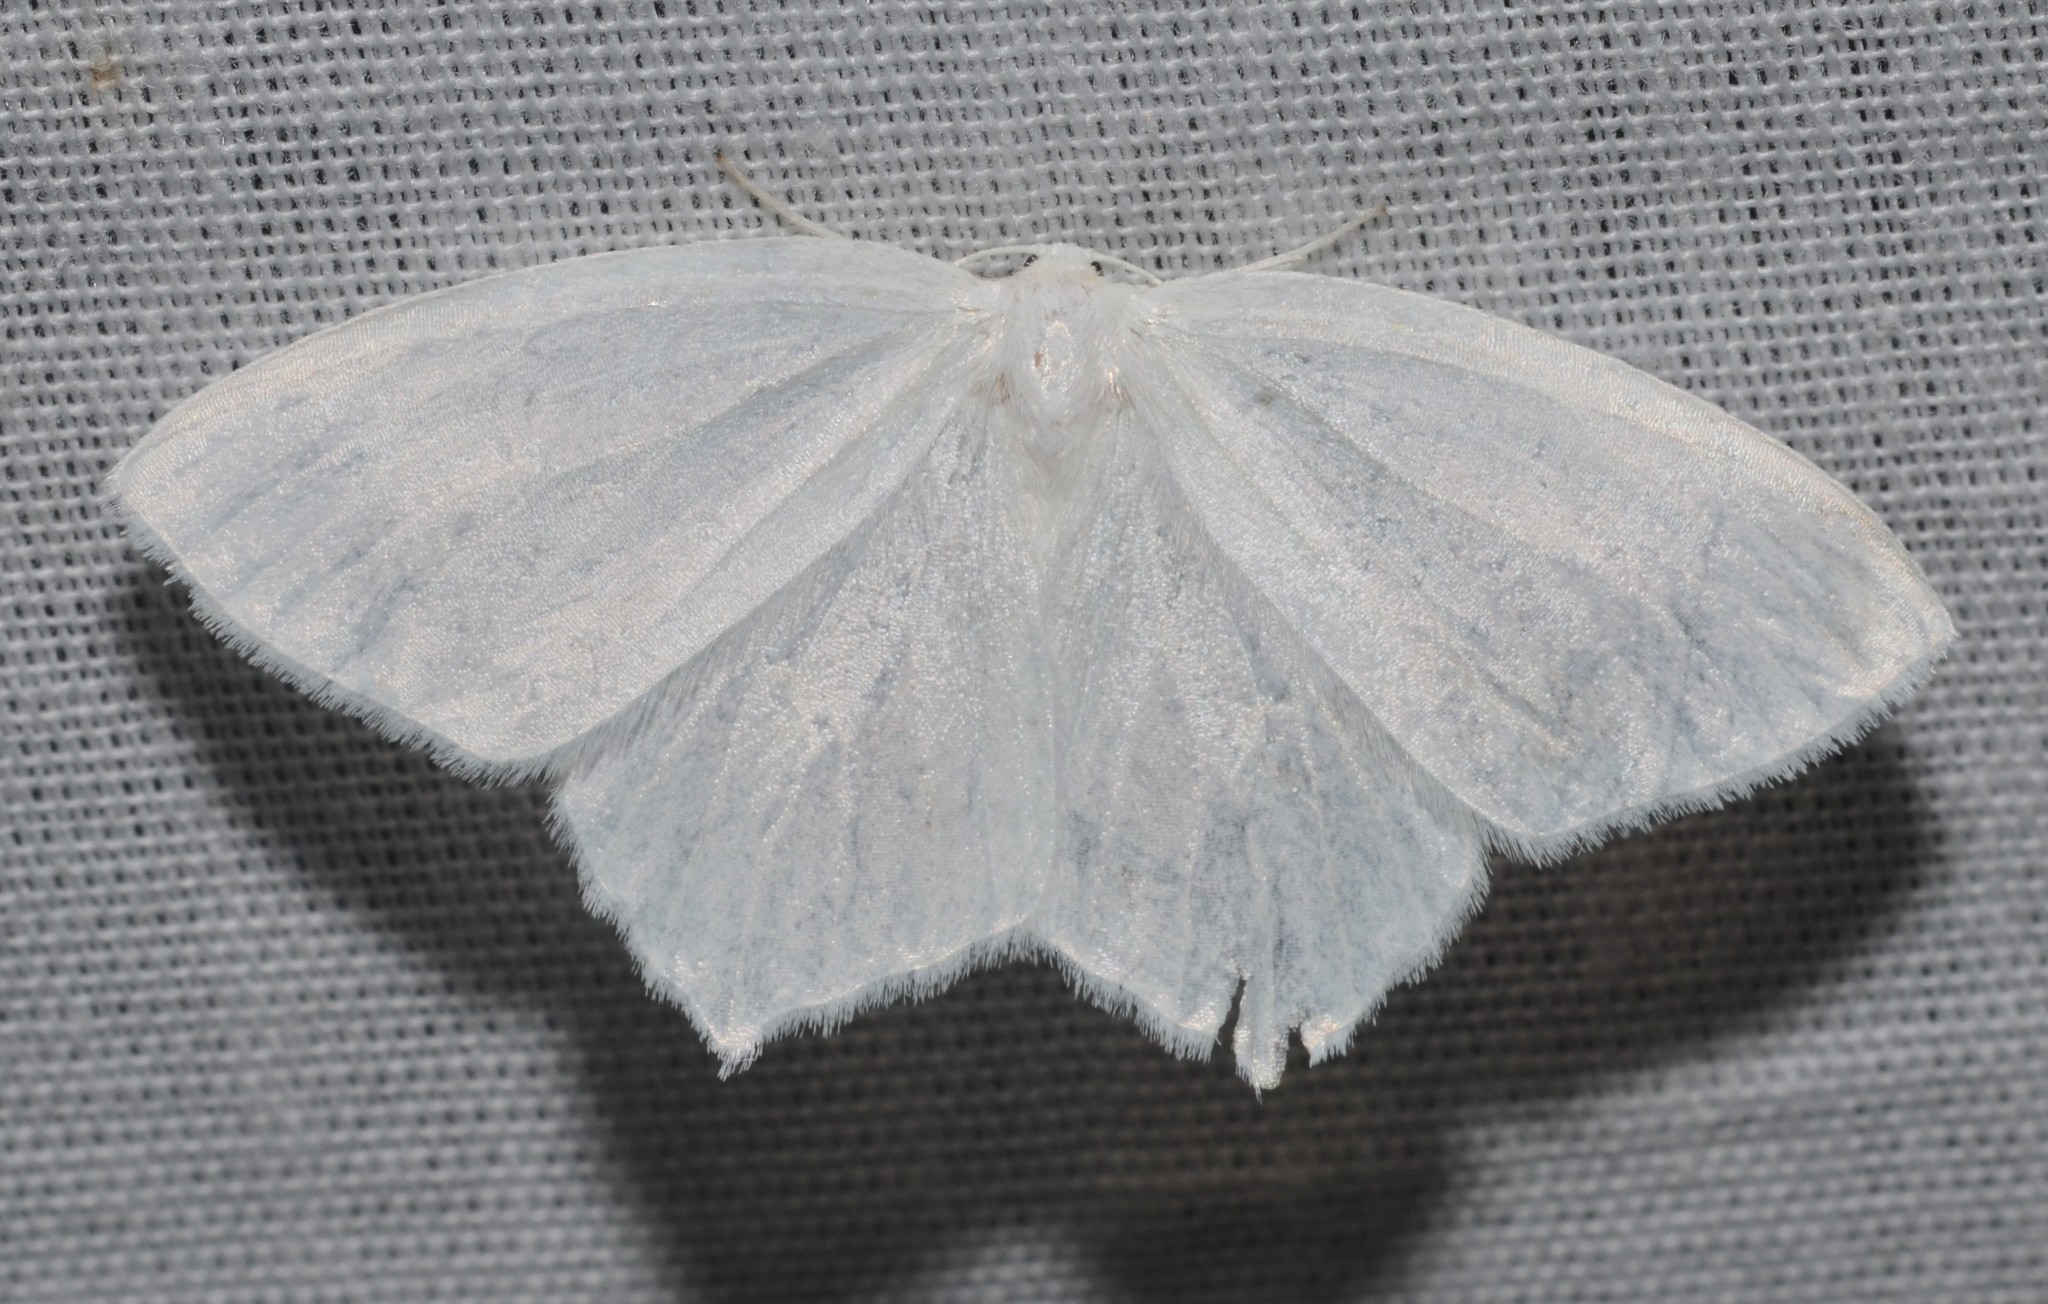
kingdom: Animalia
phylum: Arthropoda
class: Insecta
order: Lepidoptera
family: Geometridae
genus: Eugonobapta
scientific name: Eugonobapta nivosaria
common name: Snowy geometer
